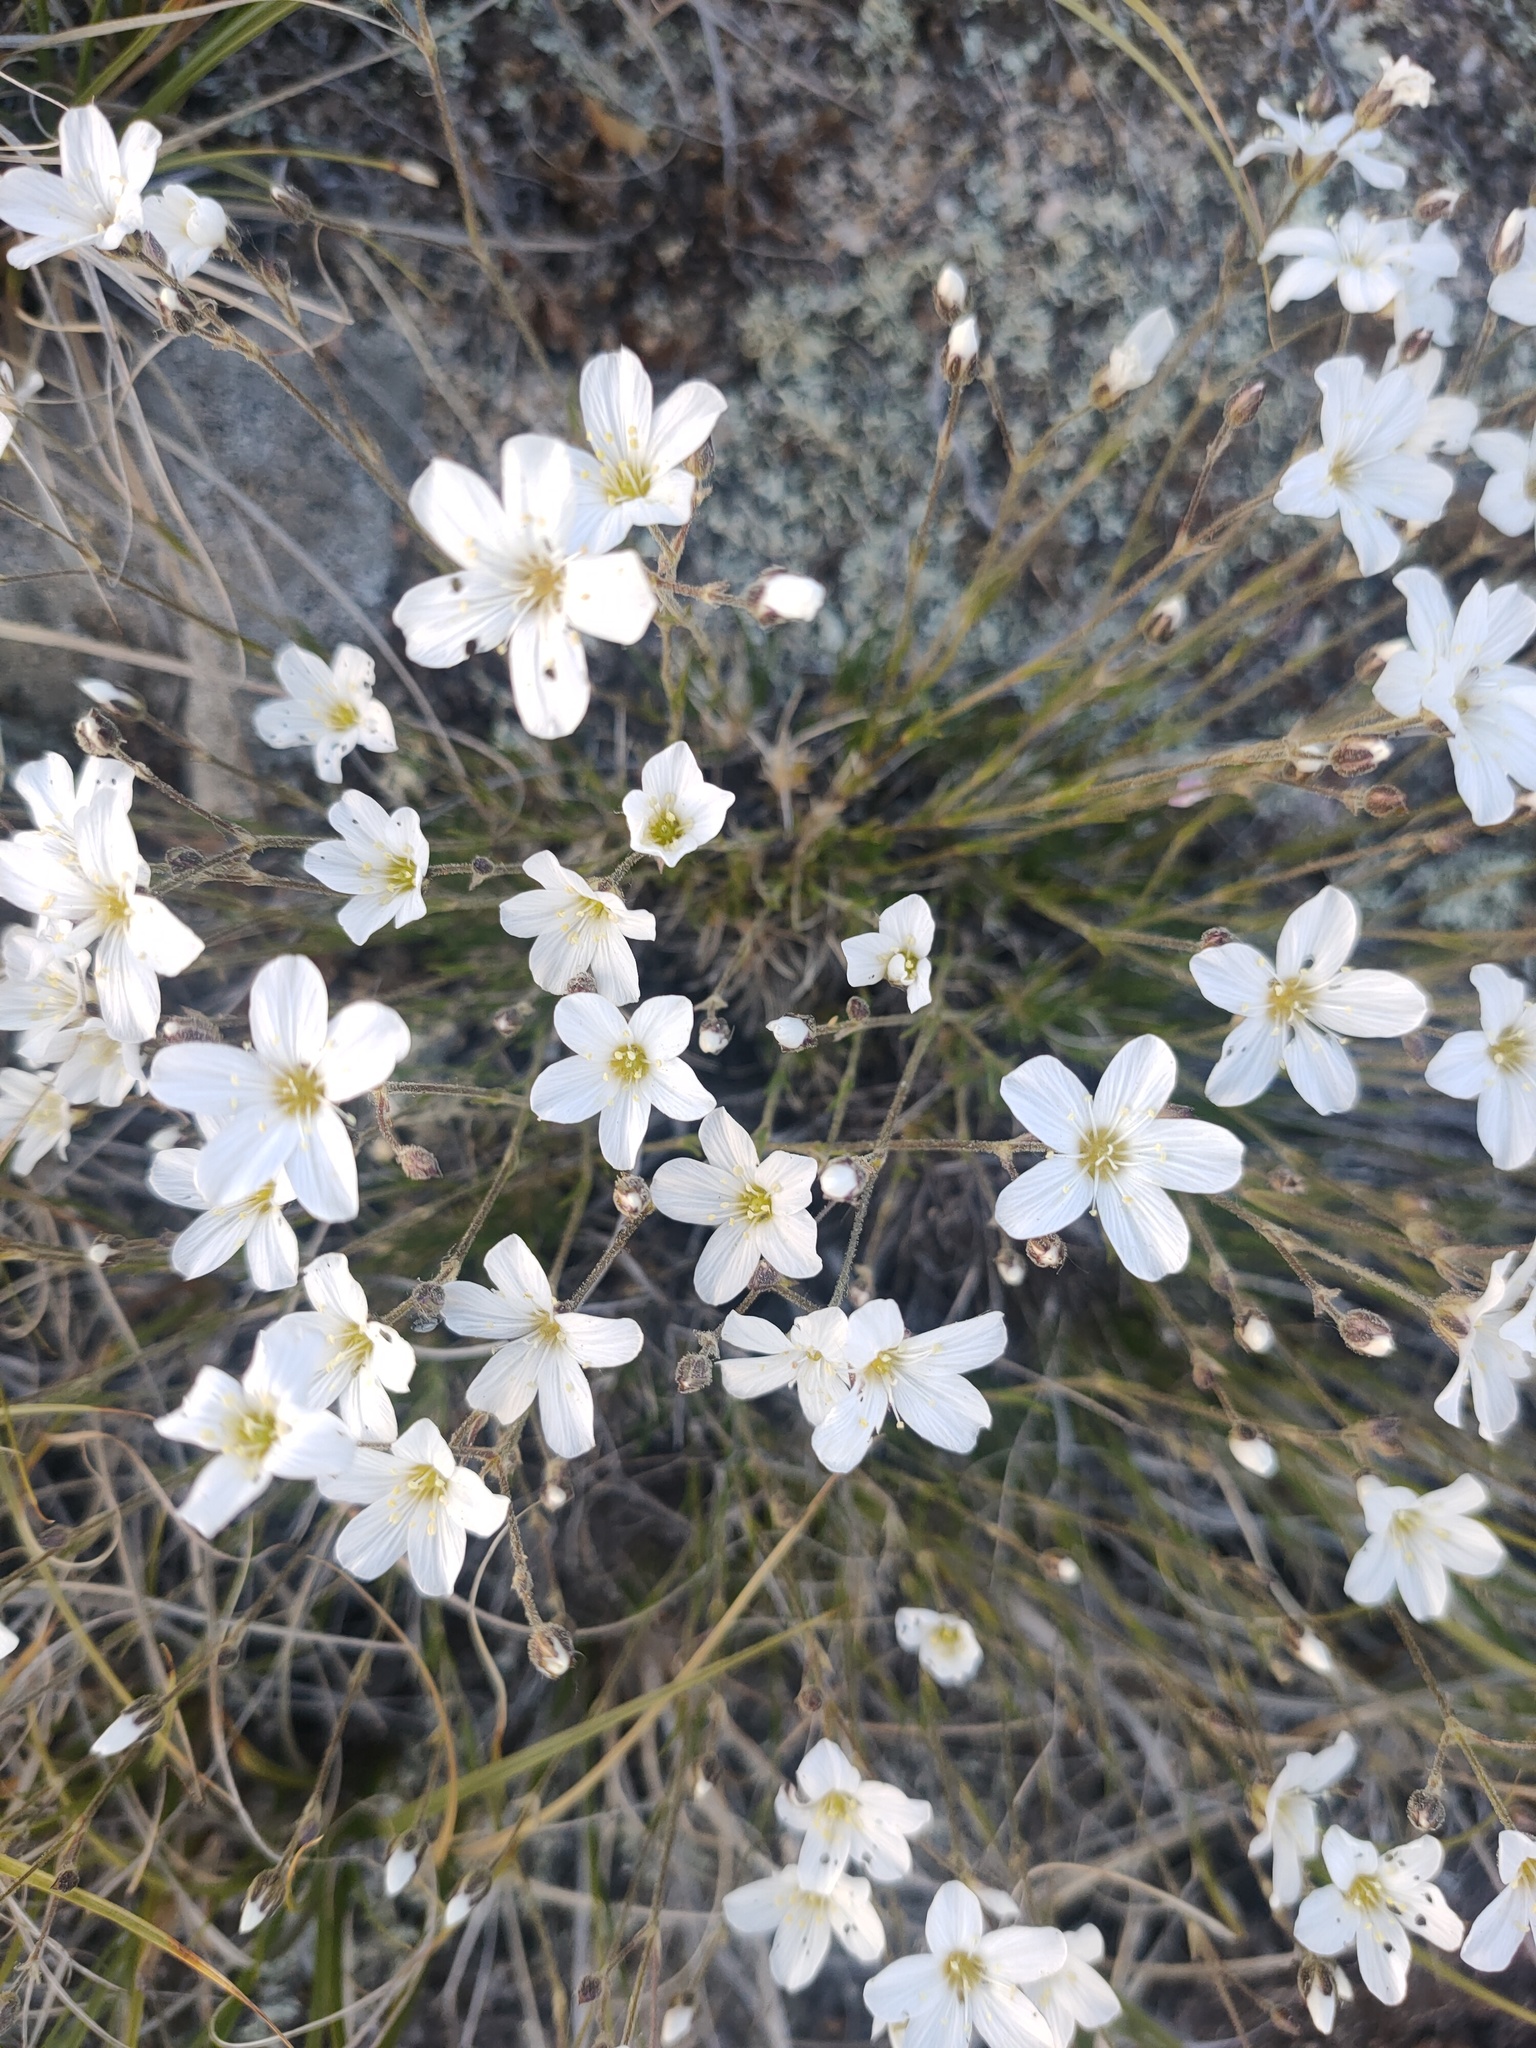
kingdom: Plantae
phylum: Tracheophyta
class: Magnoliopsida
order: Caryophyllales
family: Caryophyllaceae
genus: Eremogone
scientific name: Eremogone meyeri
